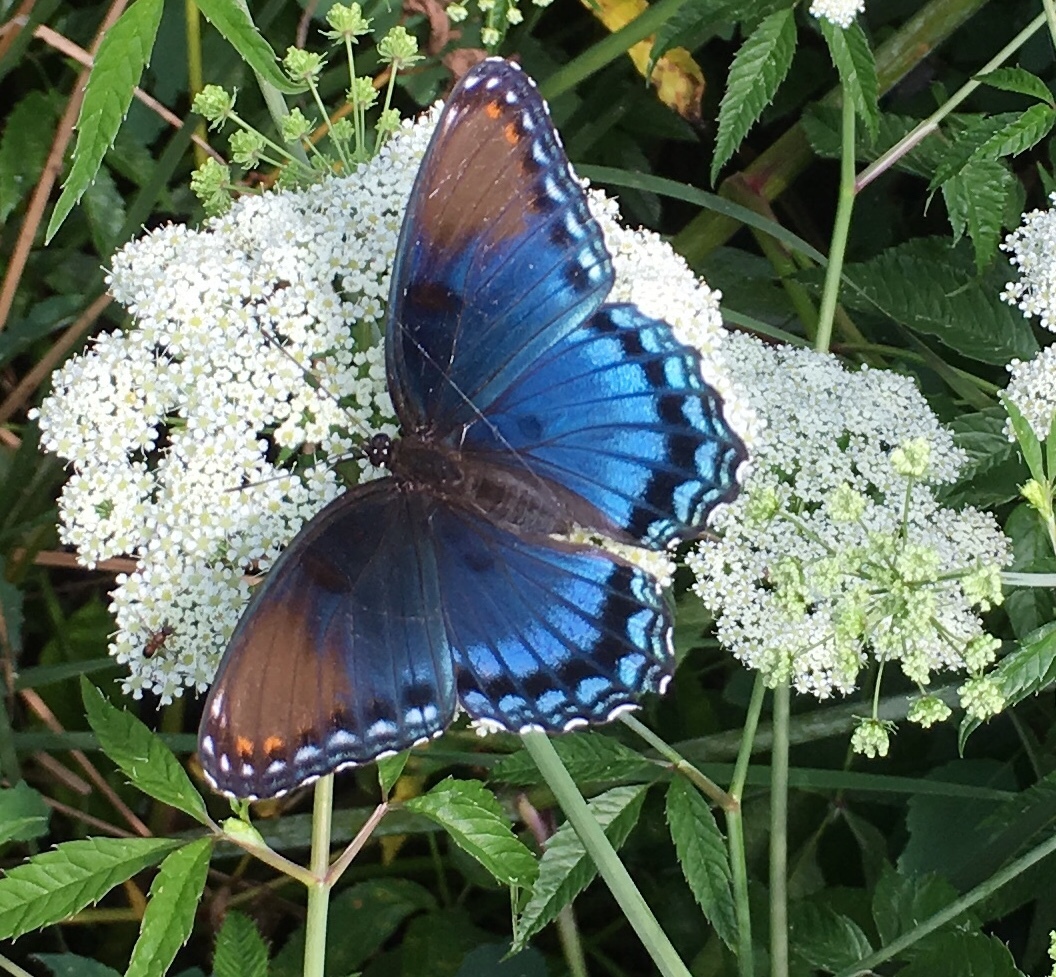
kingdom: Animalia
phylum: Arthropoda
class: Insecta
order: Lepidoptera
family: Nymphalidae
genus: Limenitis
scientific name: Limenitis astyanax
